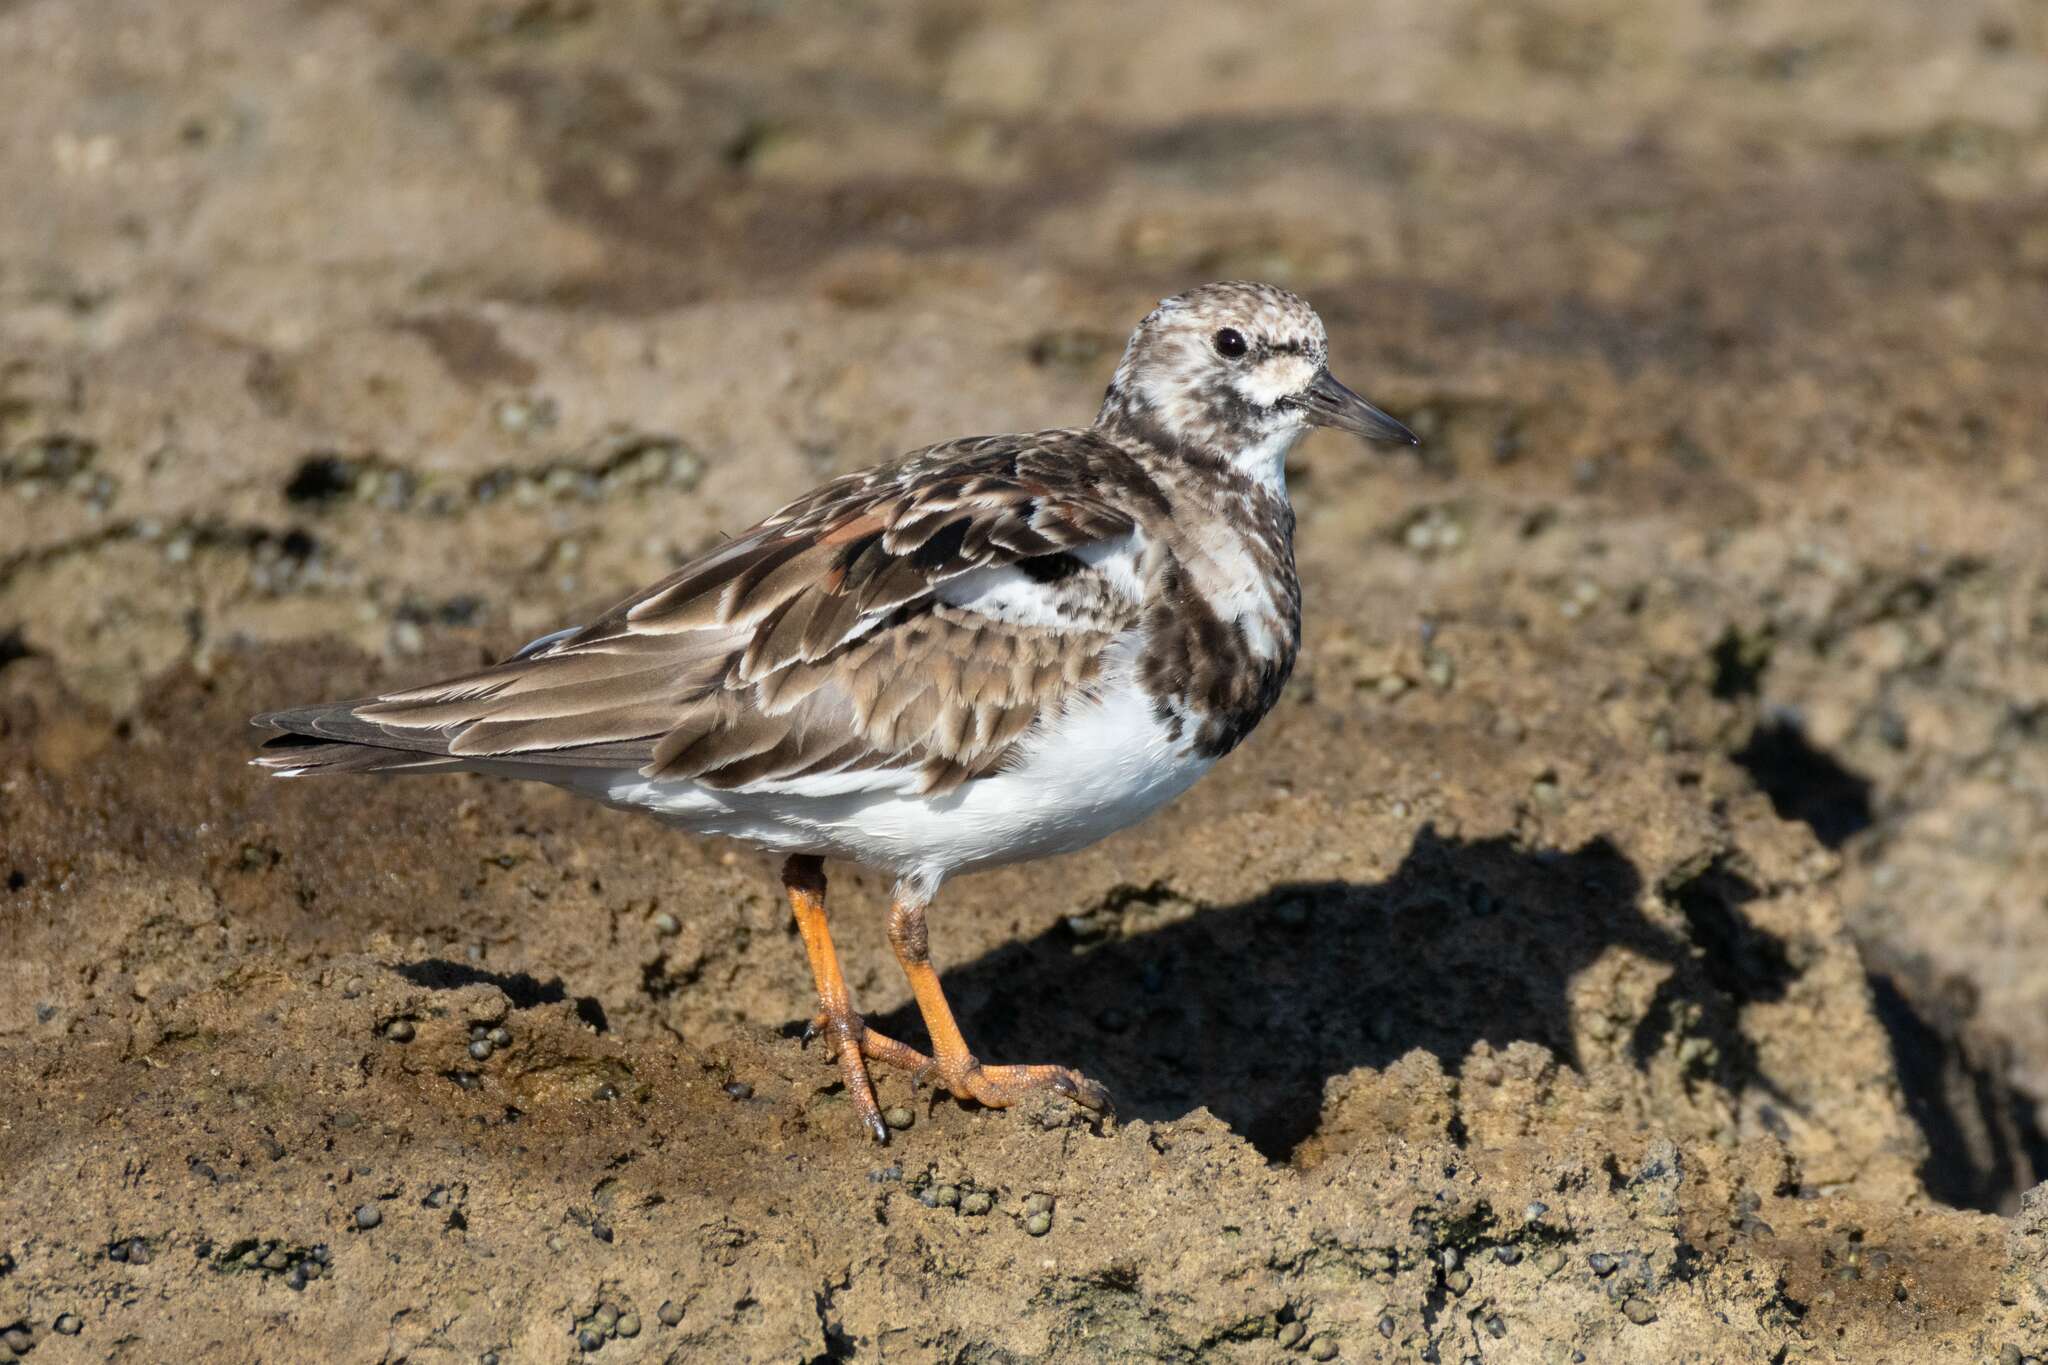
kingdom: Animalia
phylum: Chordata
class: Aves
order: Charadriiformes
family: Scolopacidae
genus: Arenaria
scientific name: Arenaria interpres
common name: Ruddy turnstone
